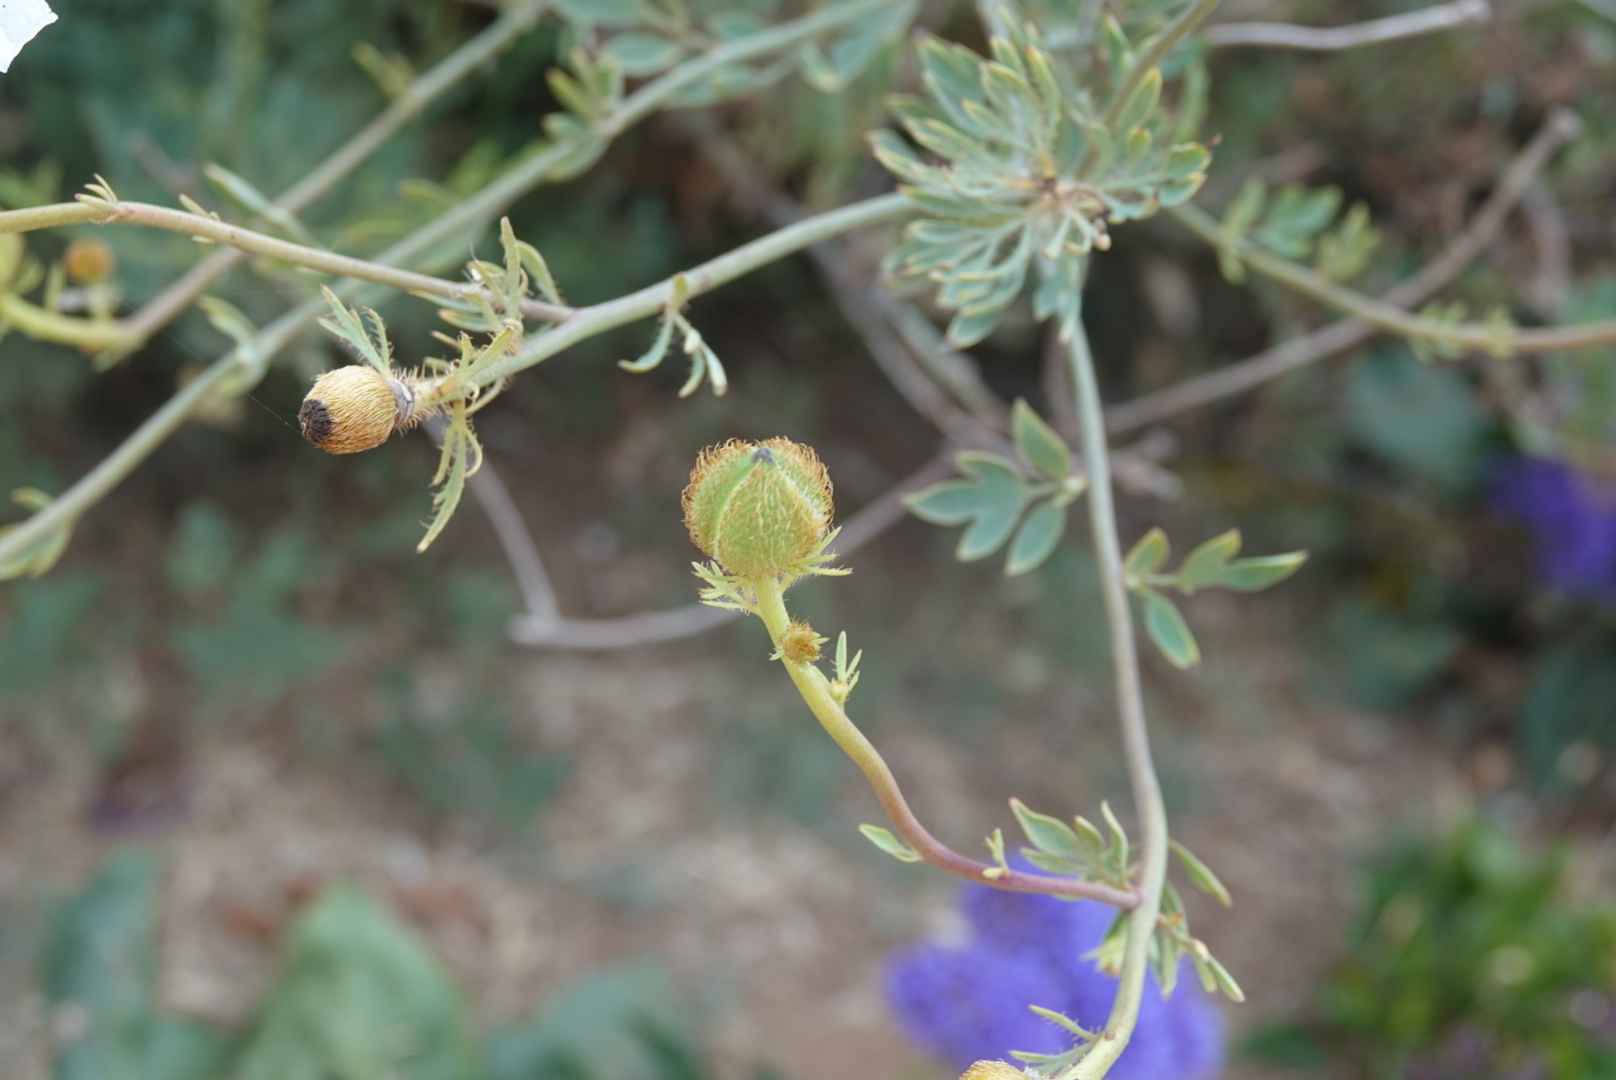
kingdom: Plantae
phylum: Tracheophyta
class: Magnoliopsida
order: Ranunculales
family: Papaveraceae
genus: Romneya
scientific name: Romneya trichocalyx
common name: Hairy matilija-poppy
